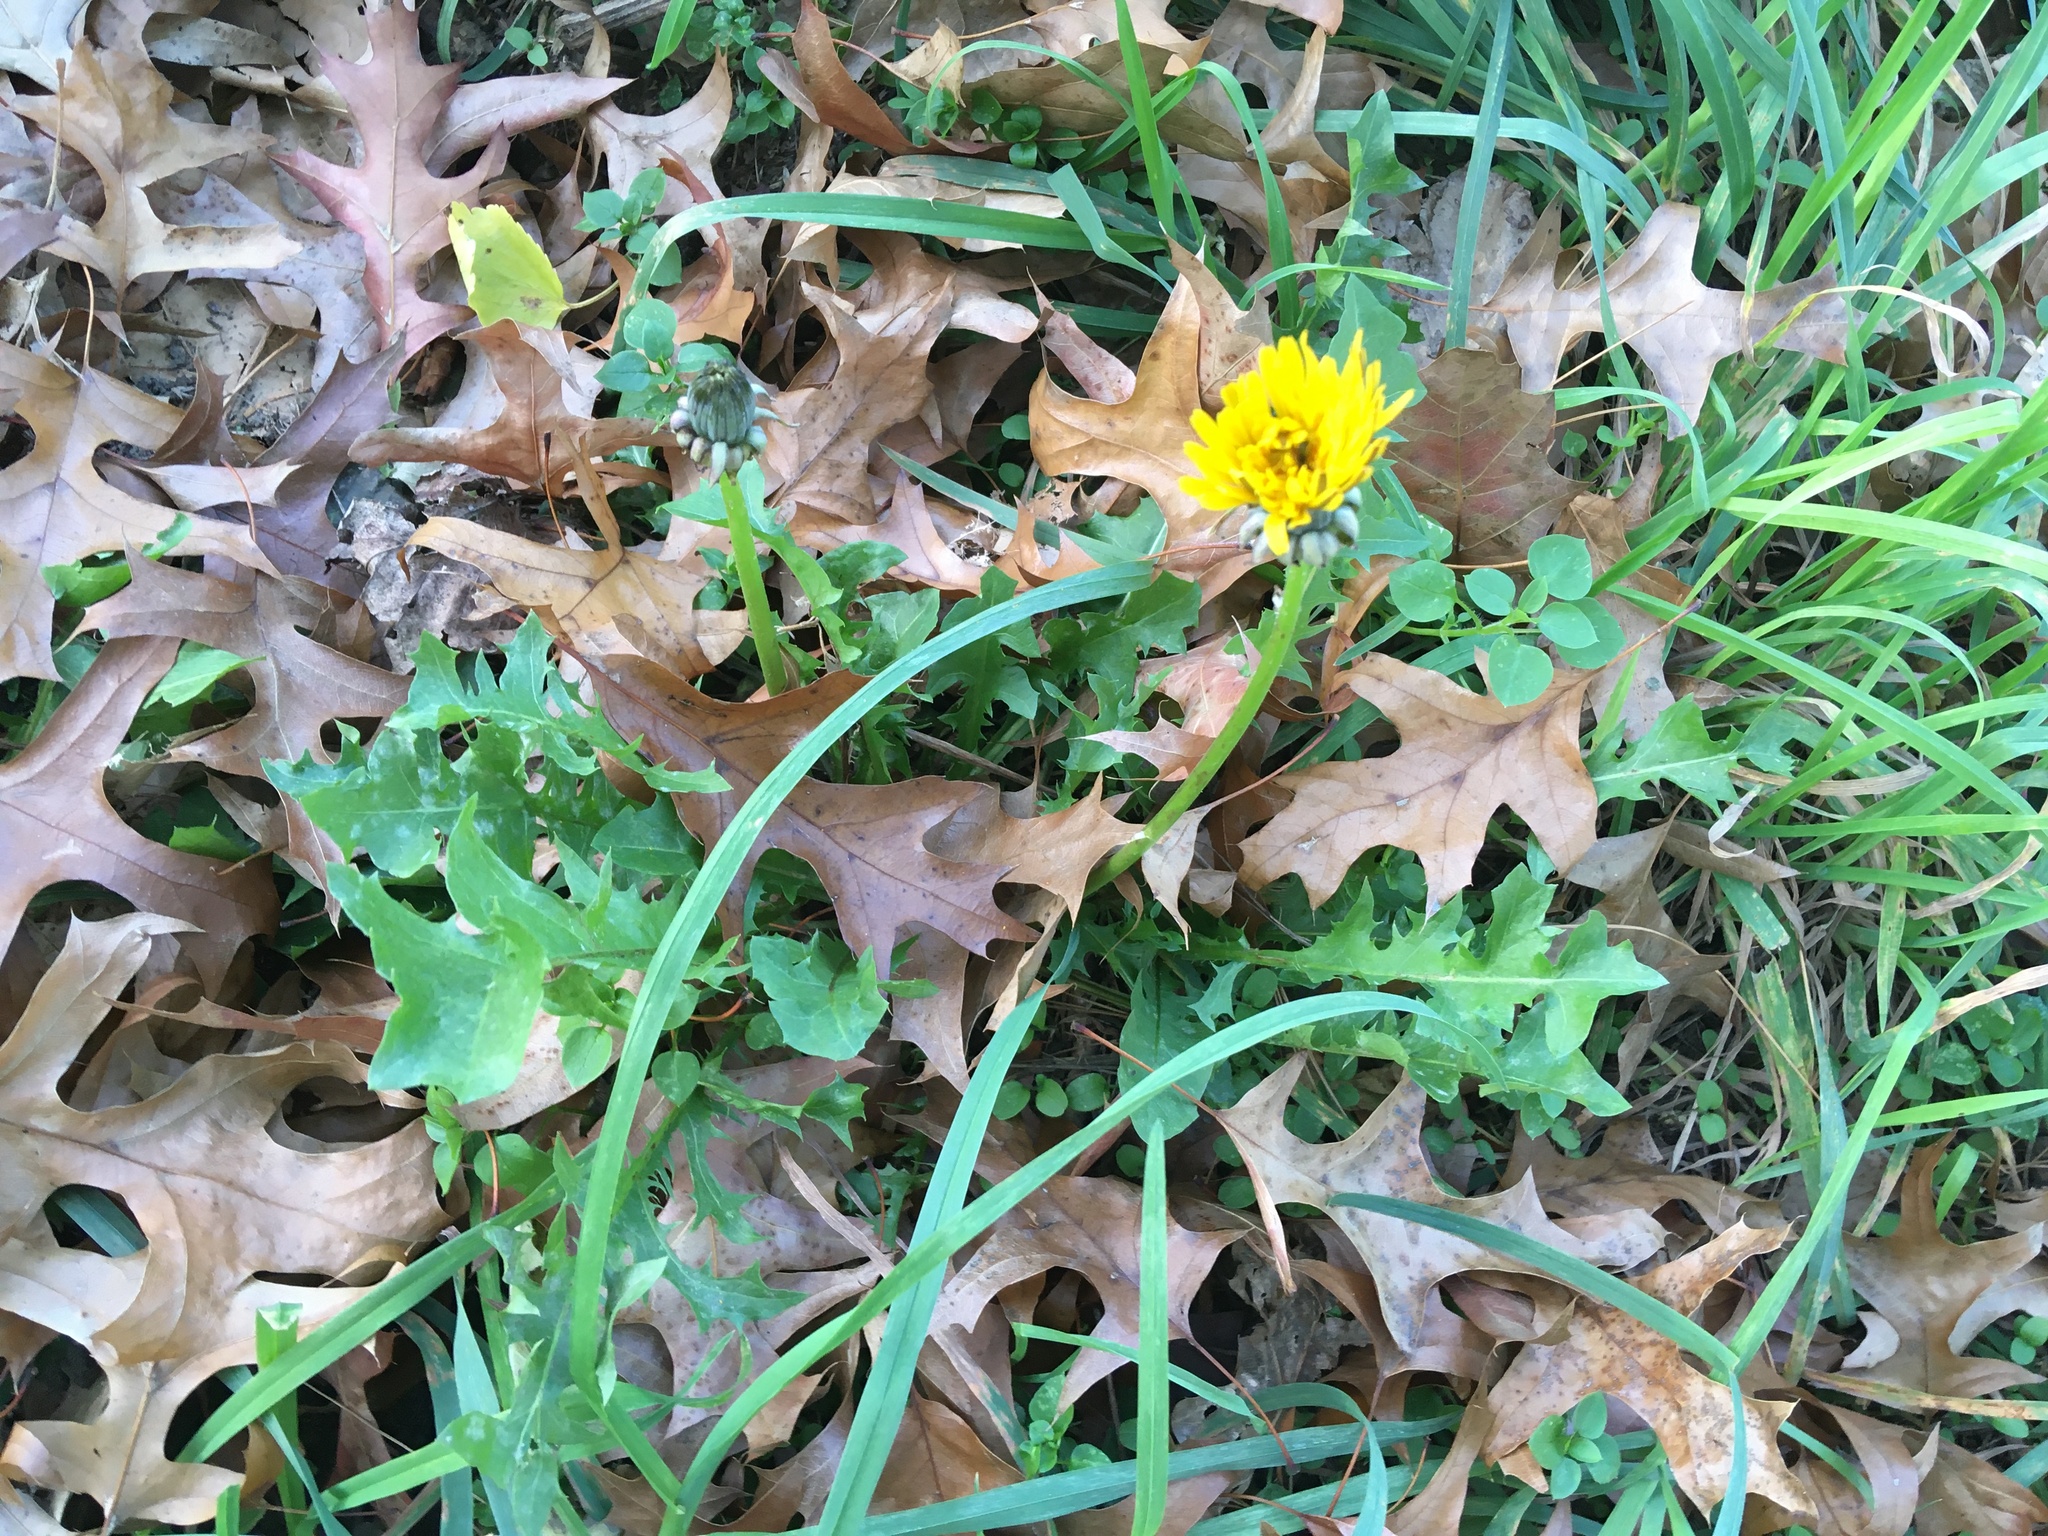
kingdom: Plantae
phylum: Tracheophyta
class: Magnoliopsida
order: Asterales
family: Asteraceae
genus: Taraxacum
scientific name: Taraxacum officinale
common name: Common dandelion
